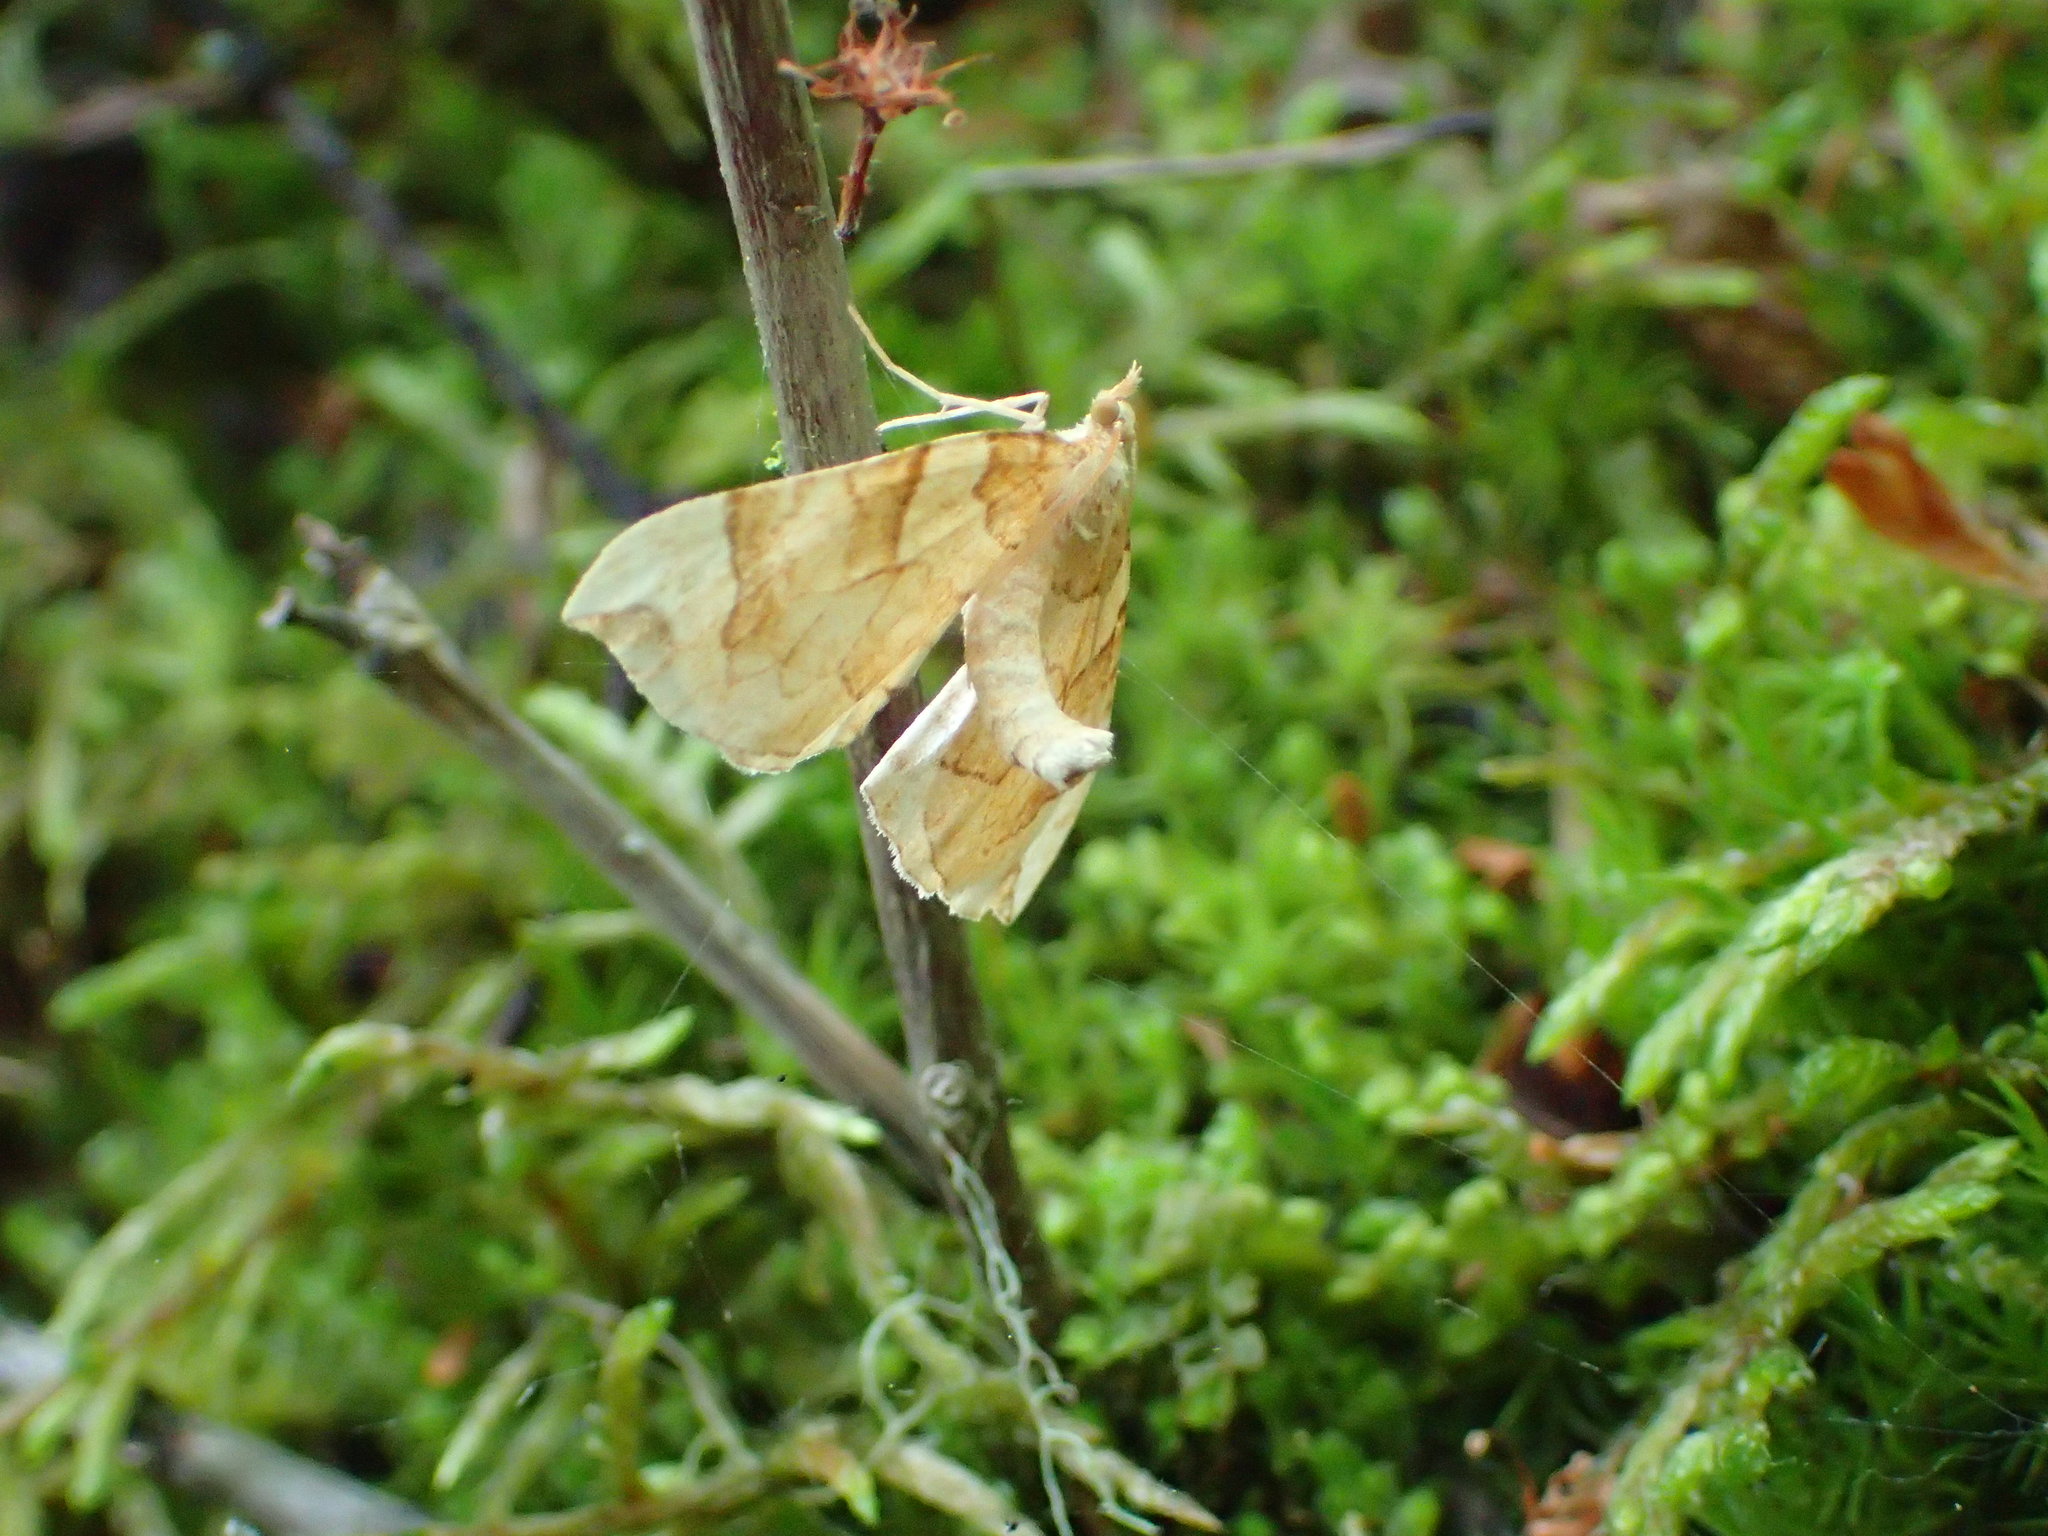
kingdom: Animalia
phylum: Arthropoda
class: Insecta
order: Lepidoptera
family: Geometridae
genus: Eulithis
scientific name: Eulithis propulsata
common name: Currant eulithis moth
